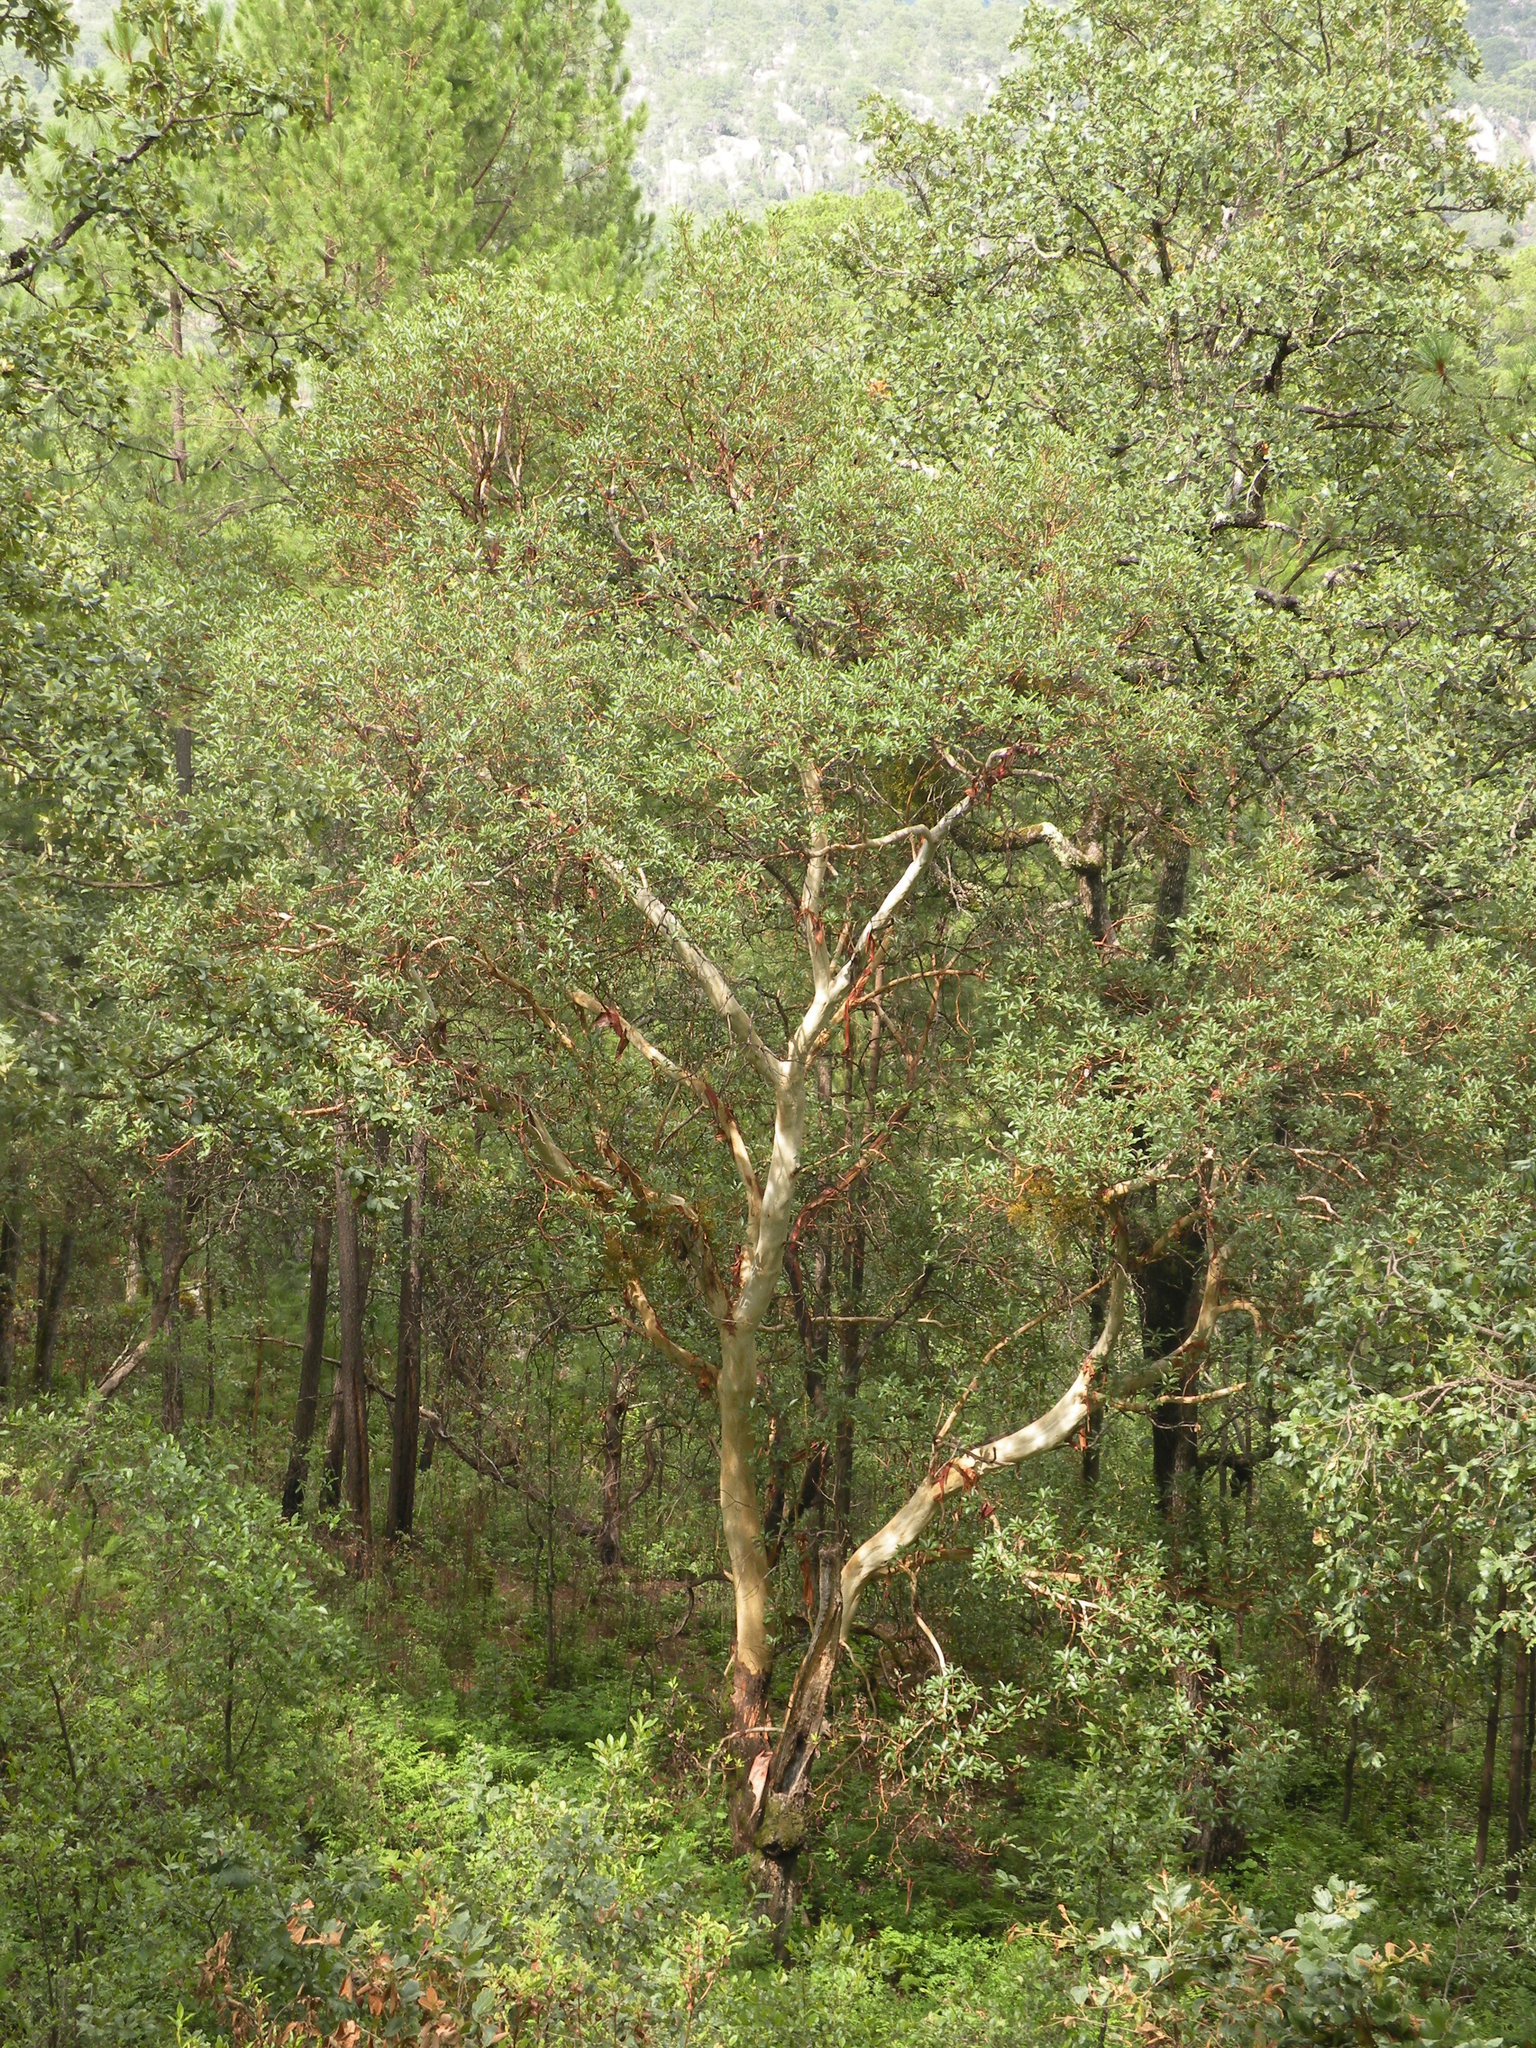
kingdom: Plantae
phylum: Tracheophyta
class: Magnoliopsida
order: Ericales
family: Ericaceae
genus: Arbutus
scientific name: Arbutus xalapensis
